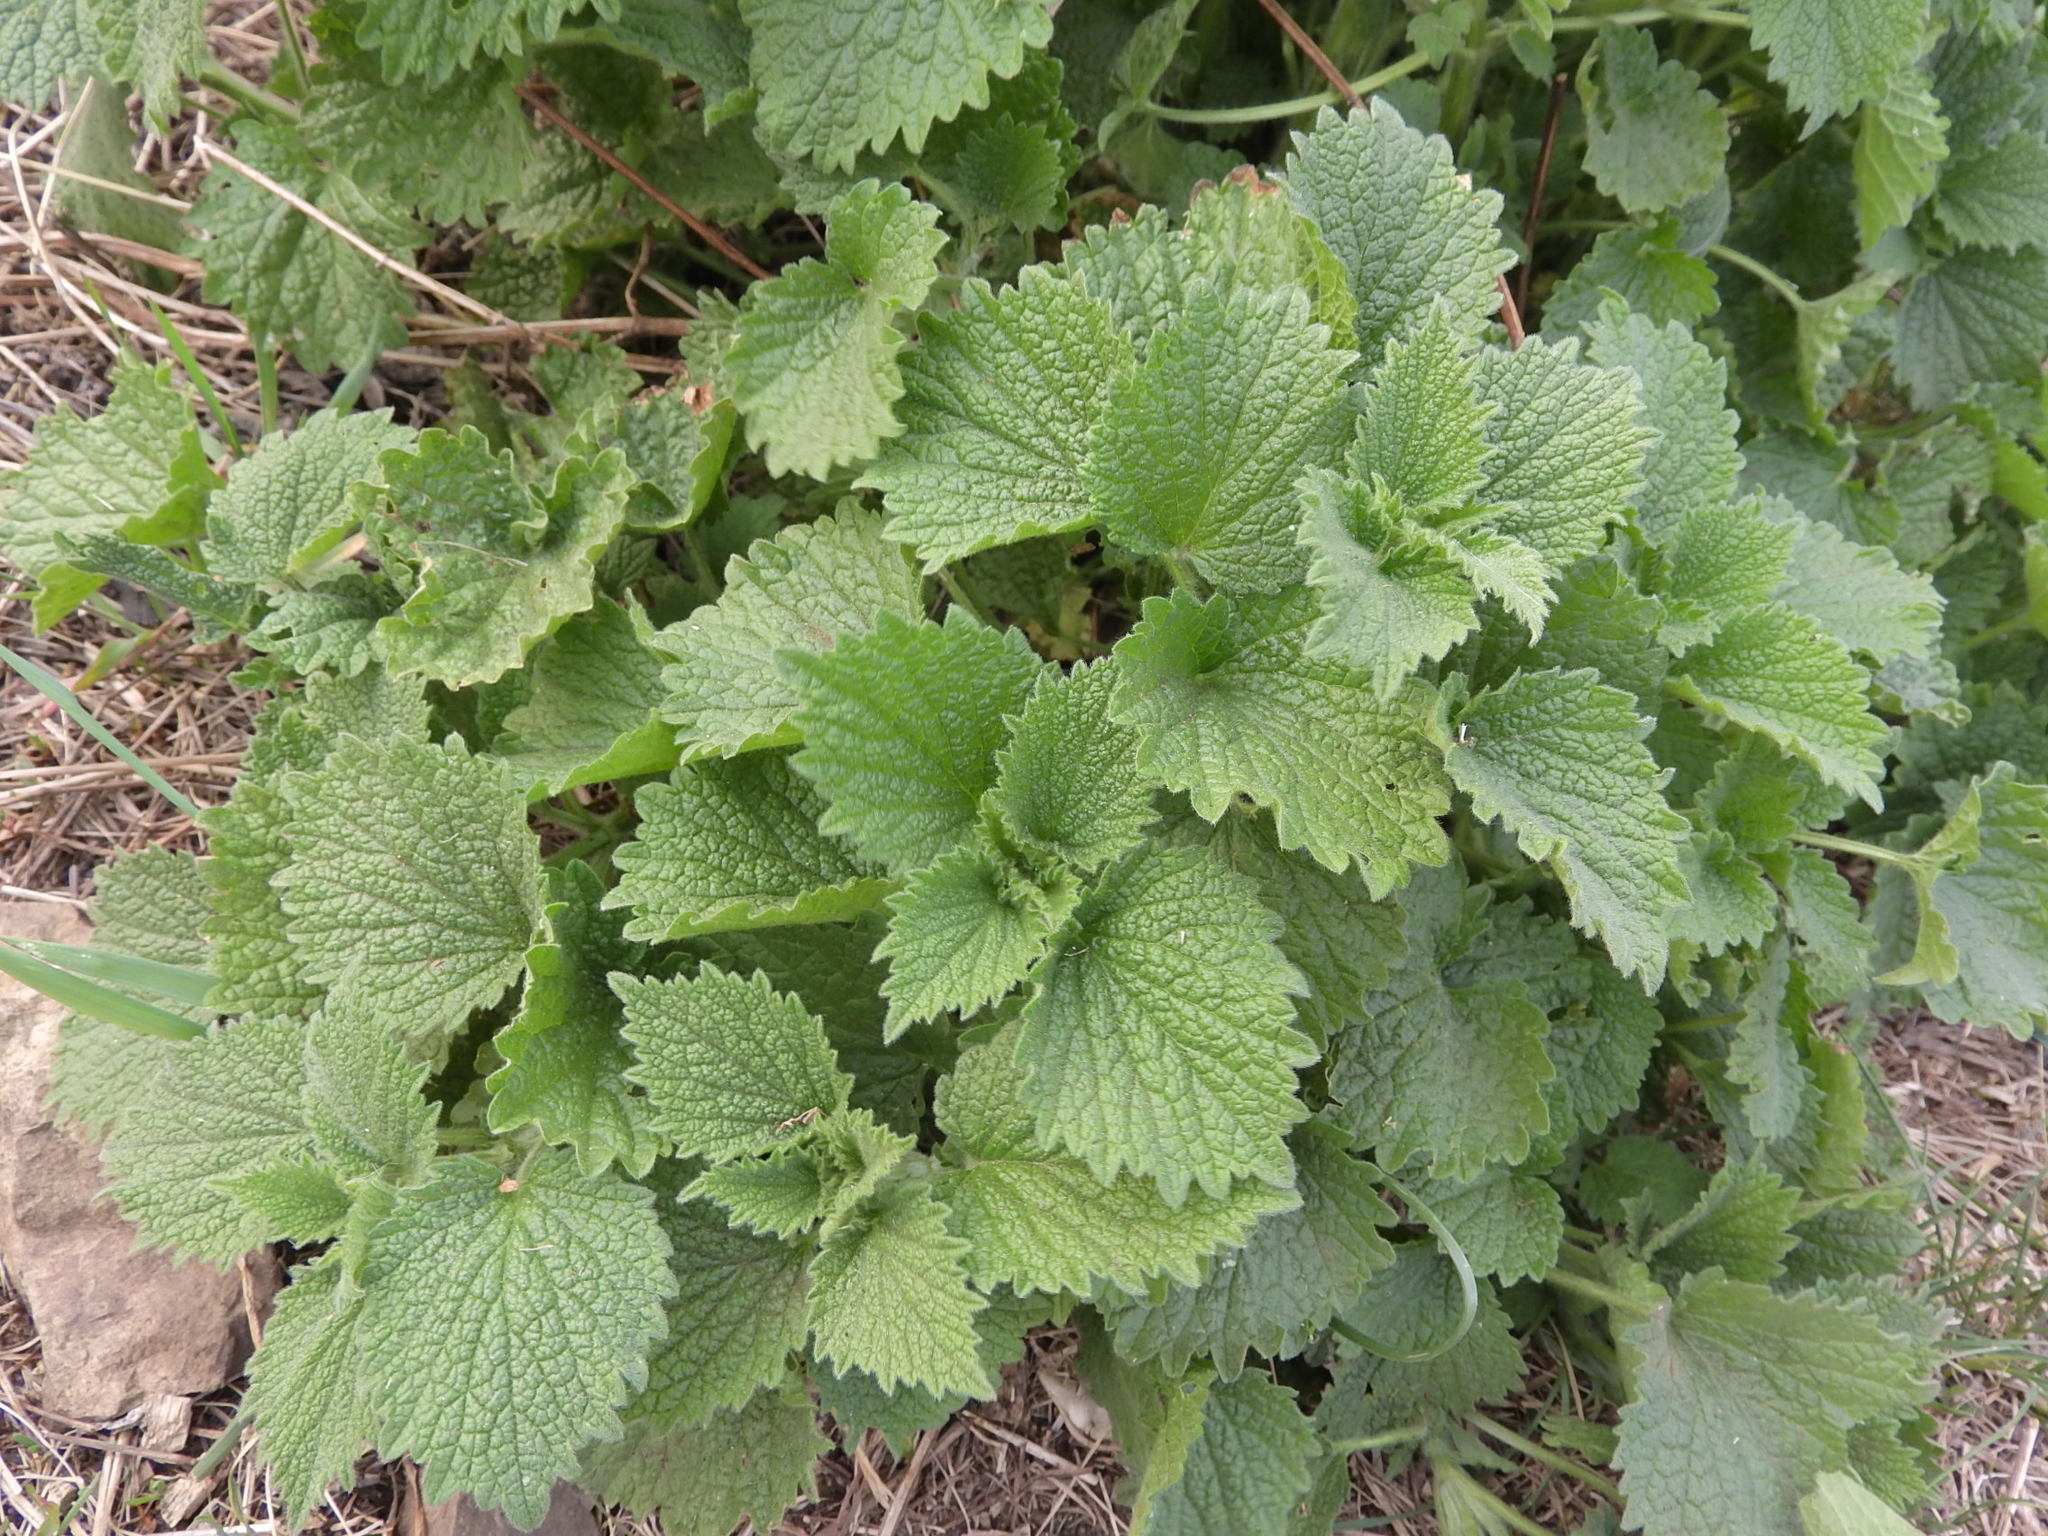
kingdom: Plantae
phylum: Tracheophyta
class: Magnoliopsida
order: Lamiales
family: Lamiaceae
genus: Ballota
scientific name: Ballota nigra
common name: Black horehound
